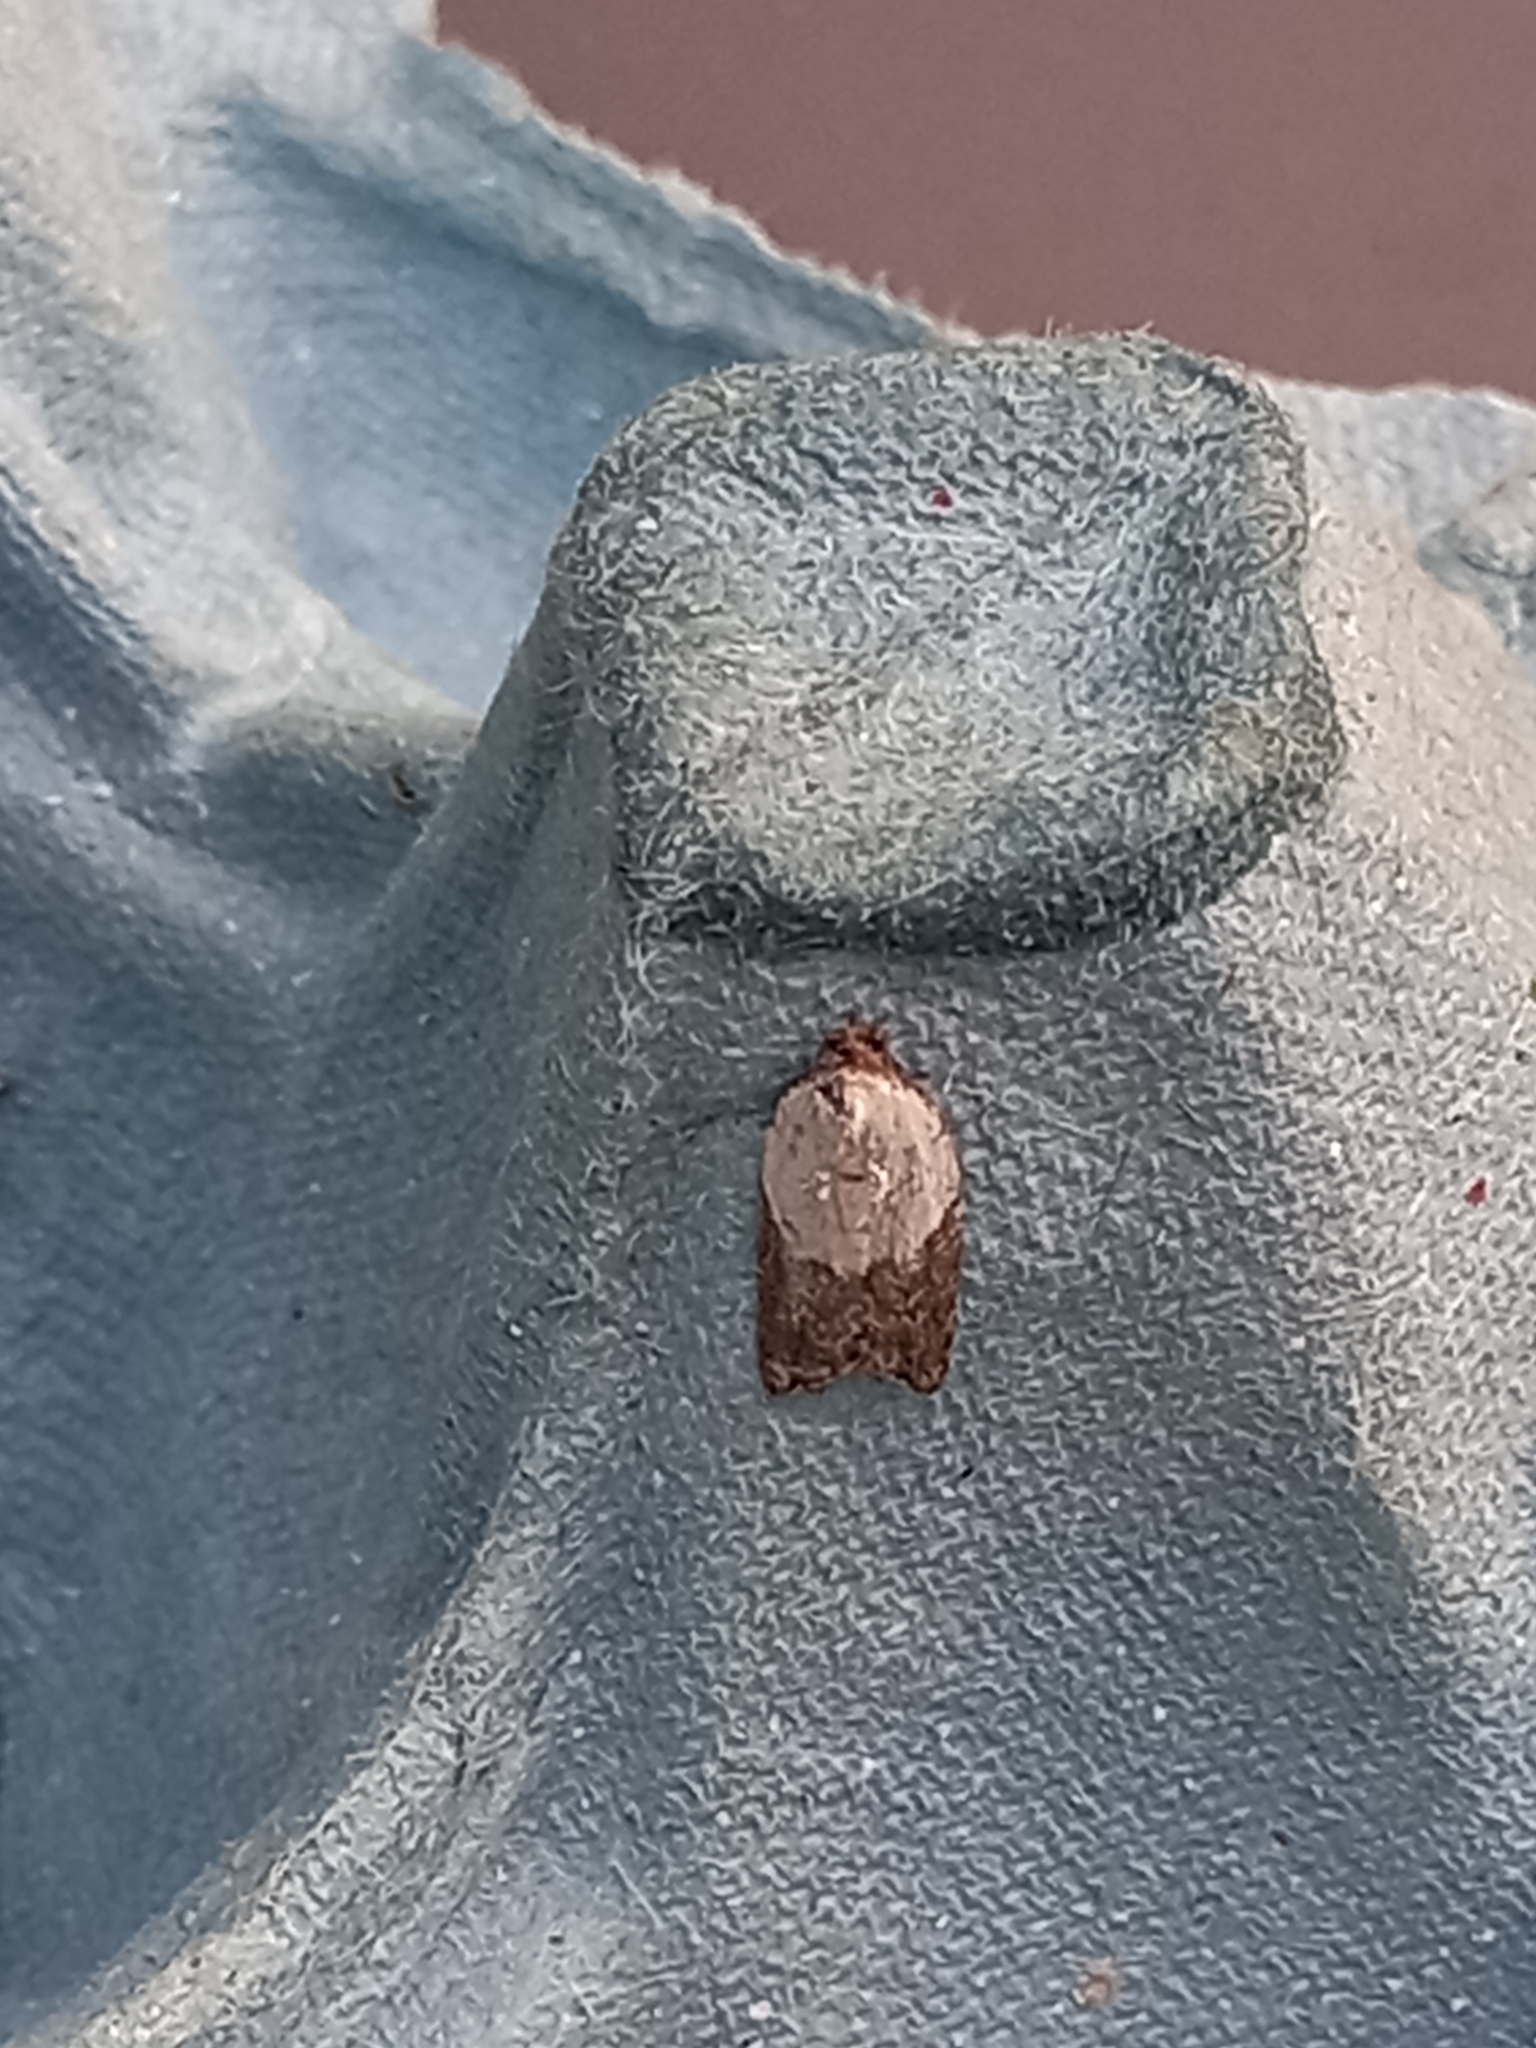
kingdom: Animalia
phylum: Arthropoda
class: Insecta
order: Lepidoptera
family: Tortricidae
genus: Acleris
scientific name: Acleris variegana
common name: Garden rose tortrix
